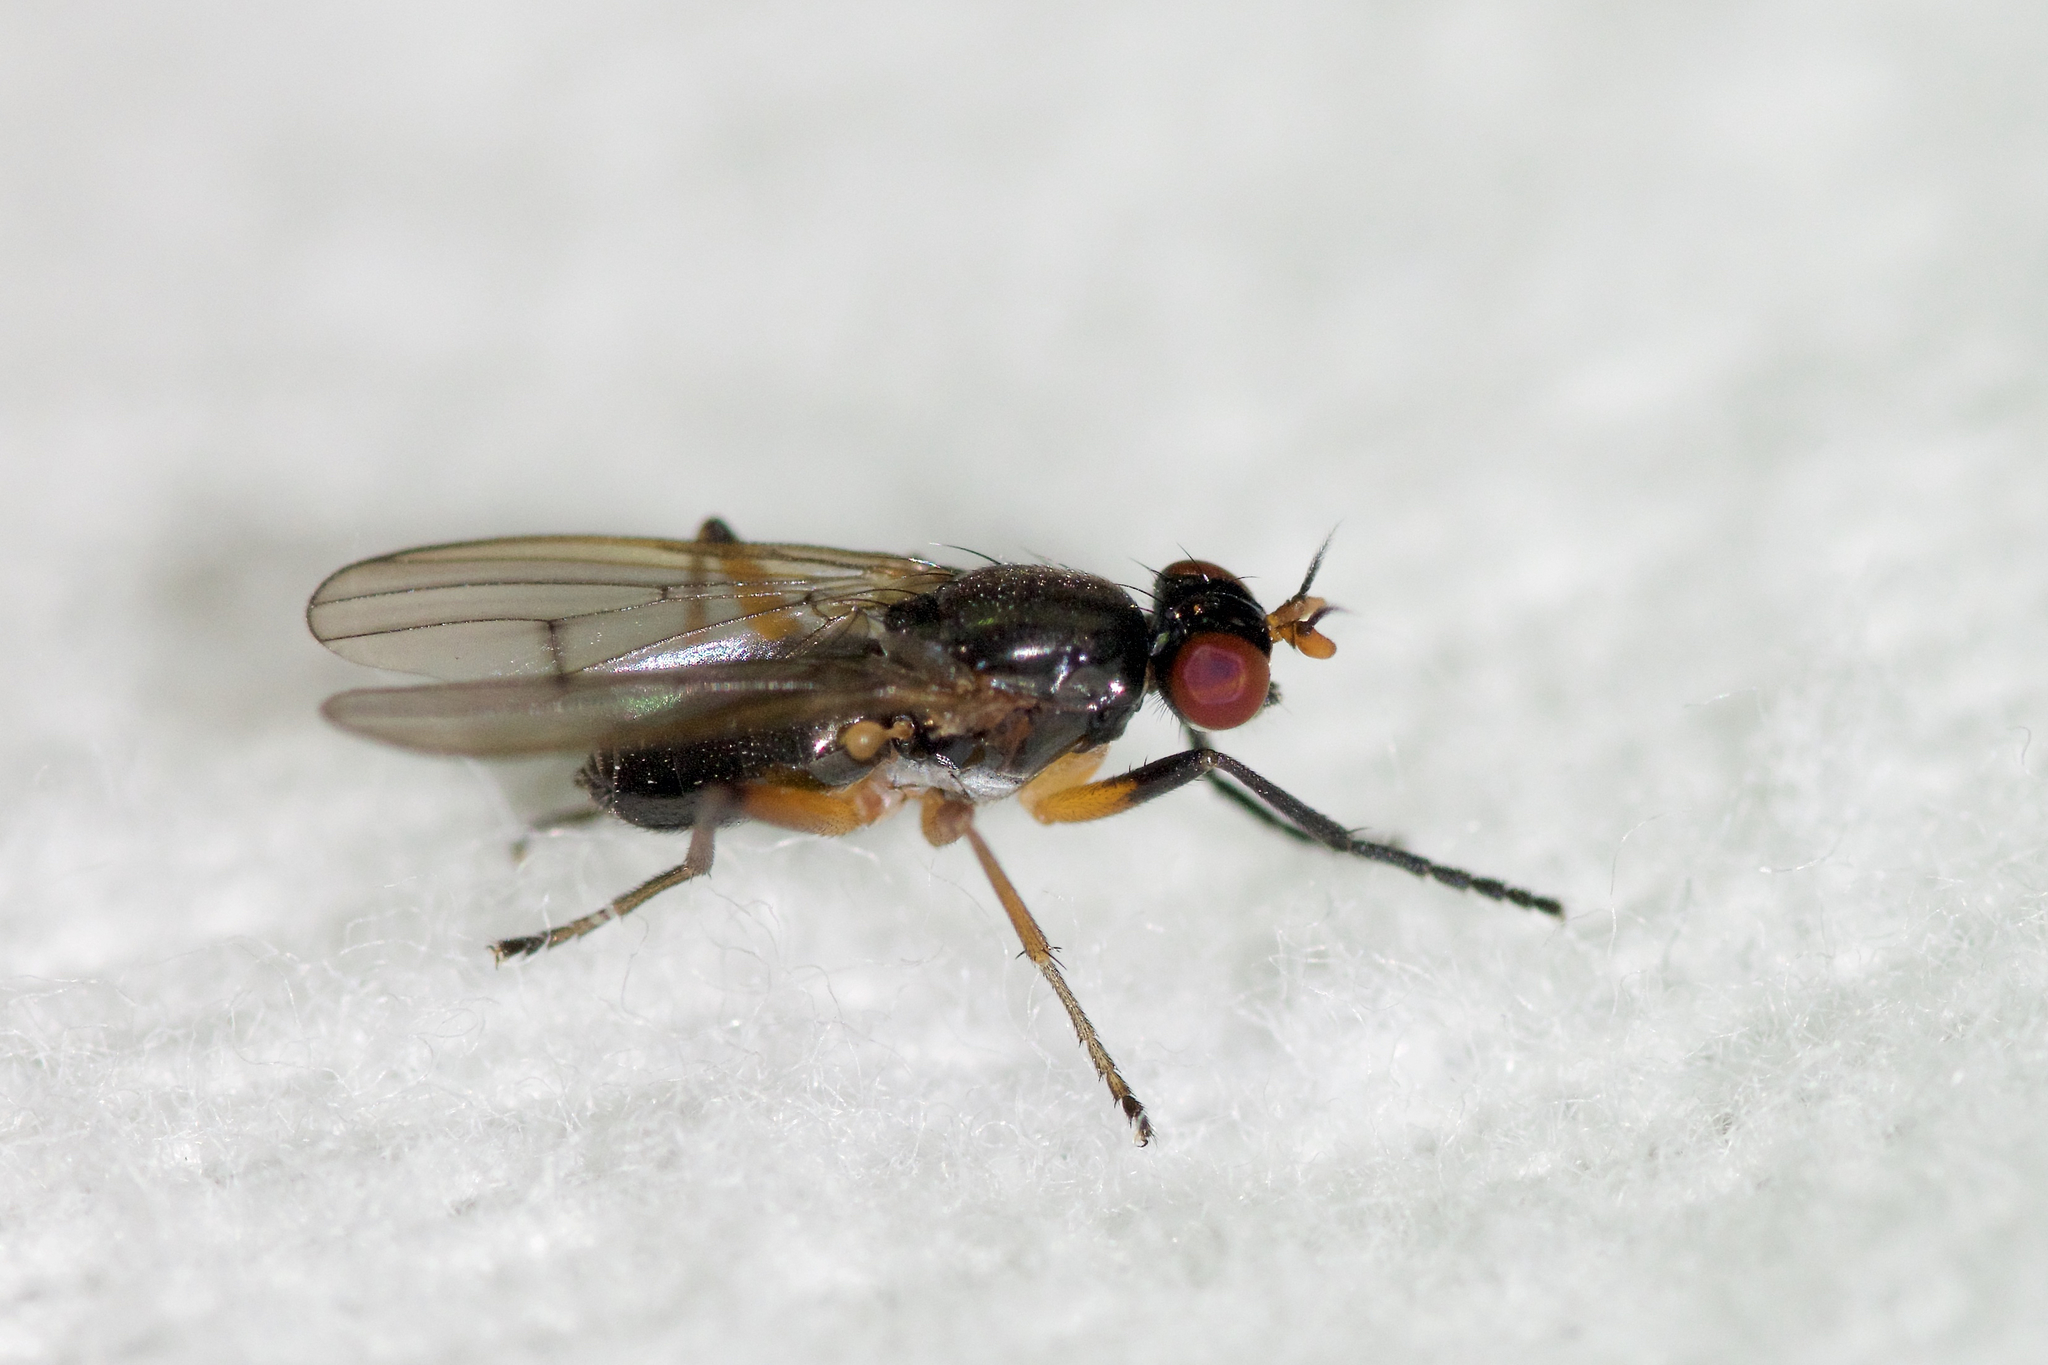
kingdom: Animalia
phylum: Arthropoda
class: Insecta
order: Diptera
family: Sciomyzidae
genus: Anticheta
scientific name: Anticheta canadensis
